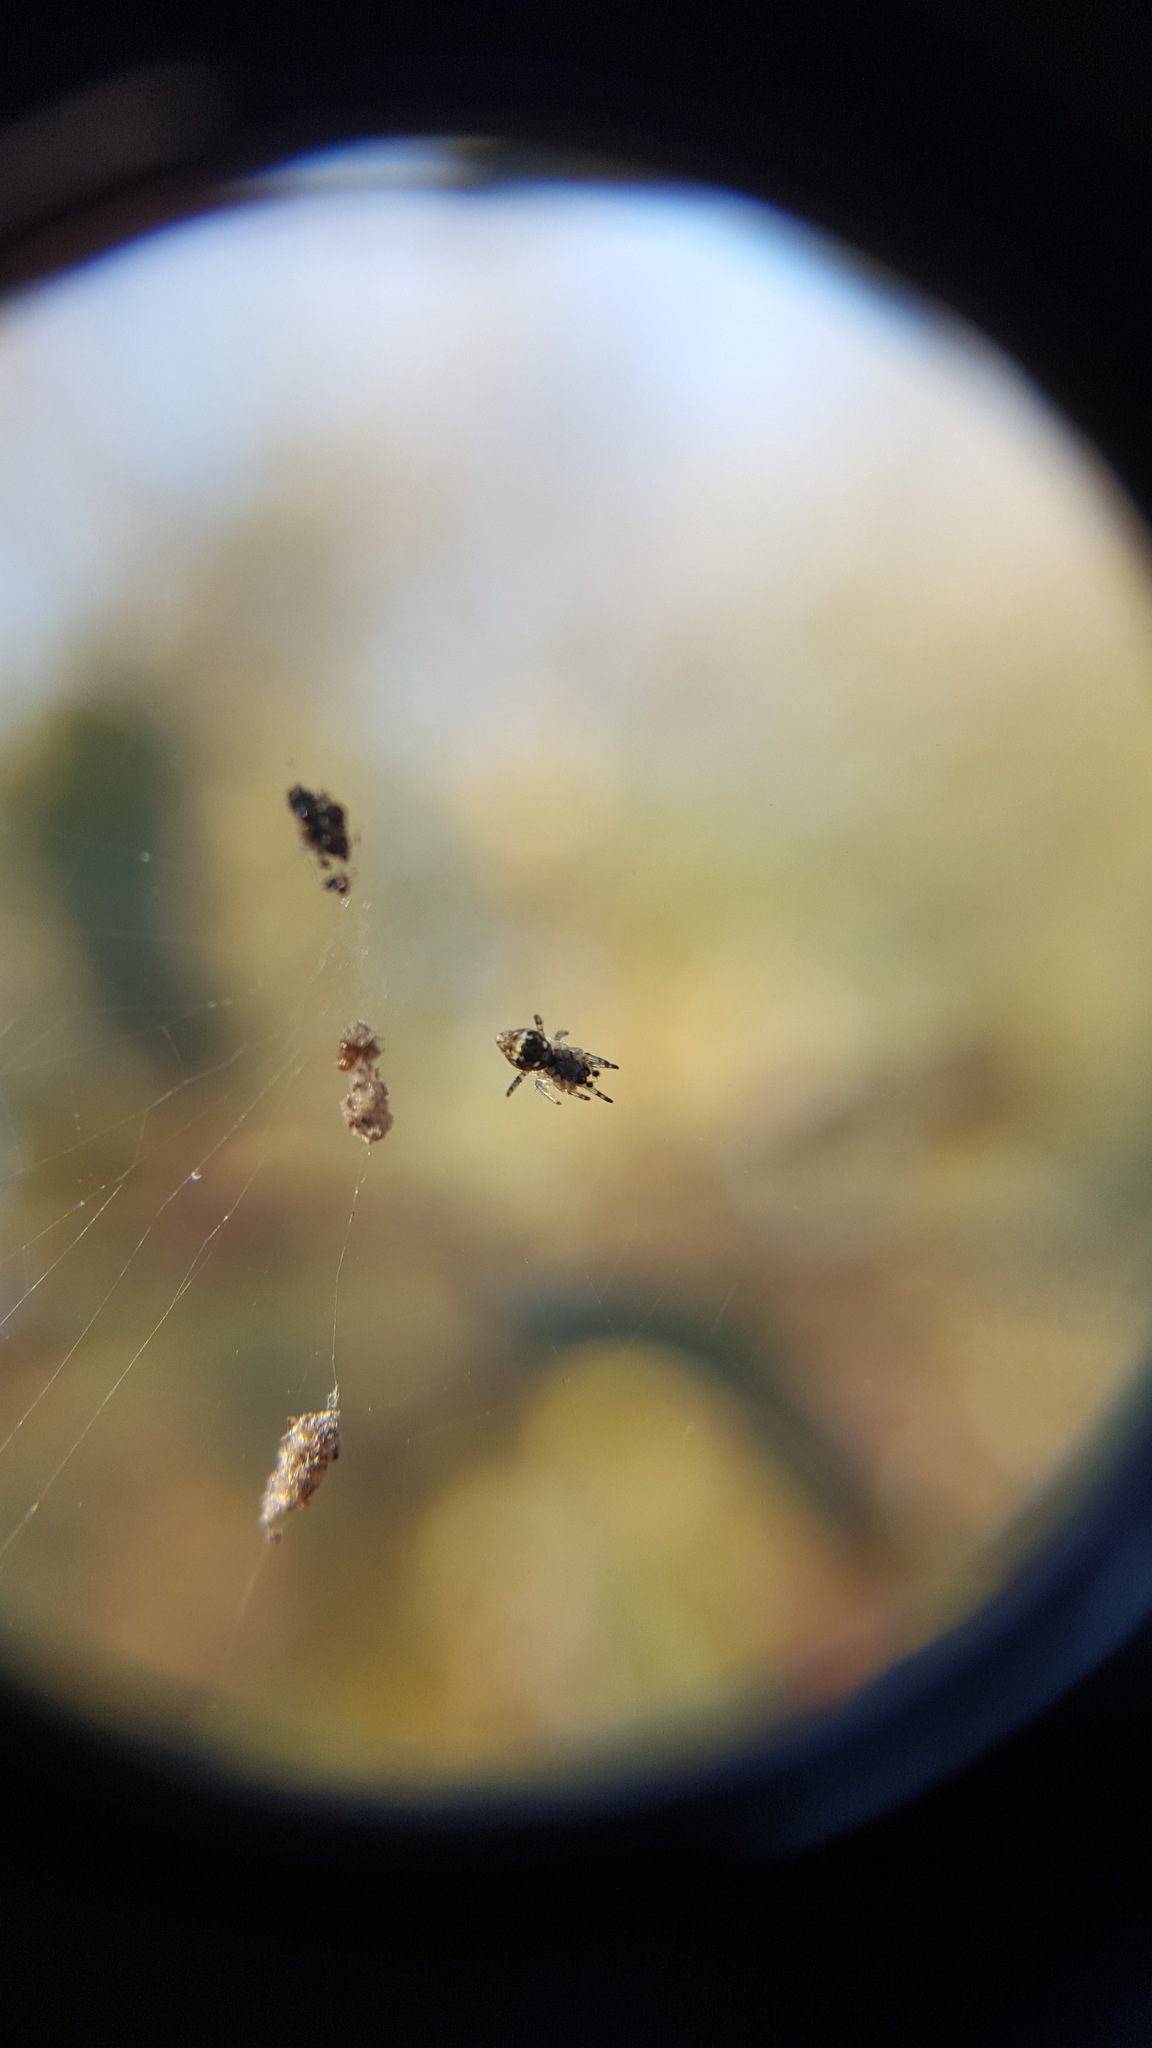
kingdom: Animalia
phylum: Arthropoda
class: Arachnida
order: Araneae
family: Araneidae
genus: Cyclosa
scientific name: Cyclosa turbinata
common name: Orb weavers
